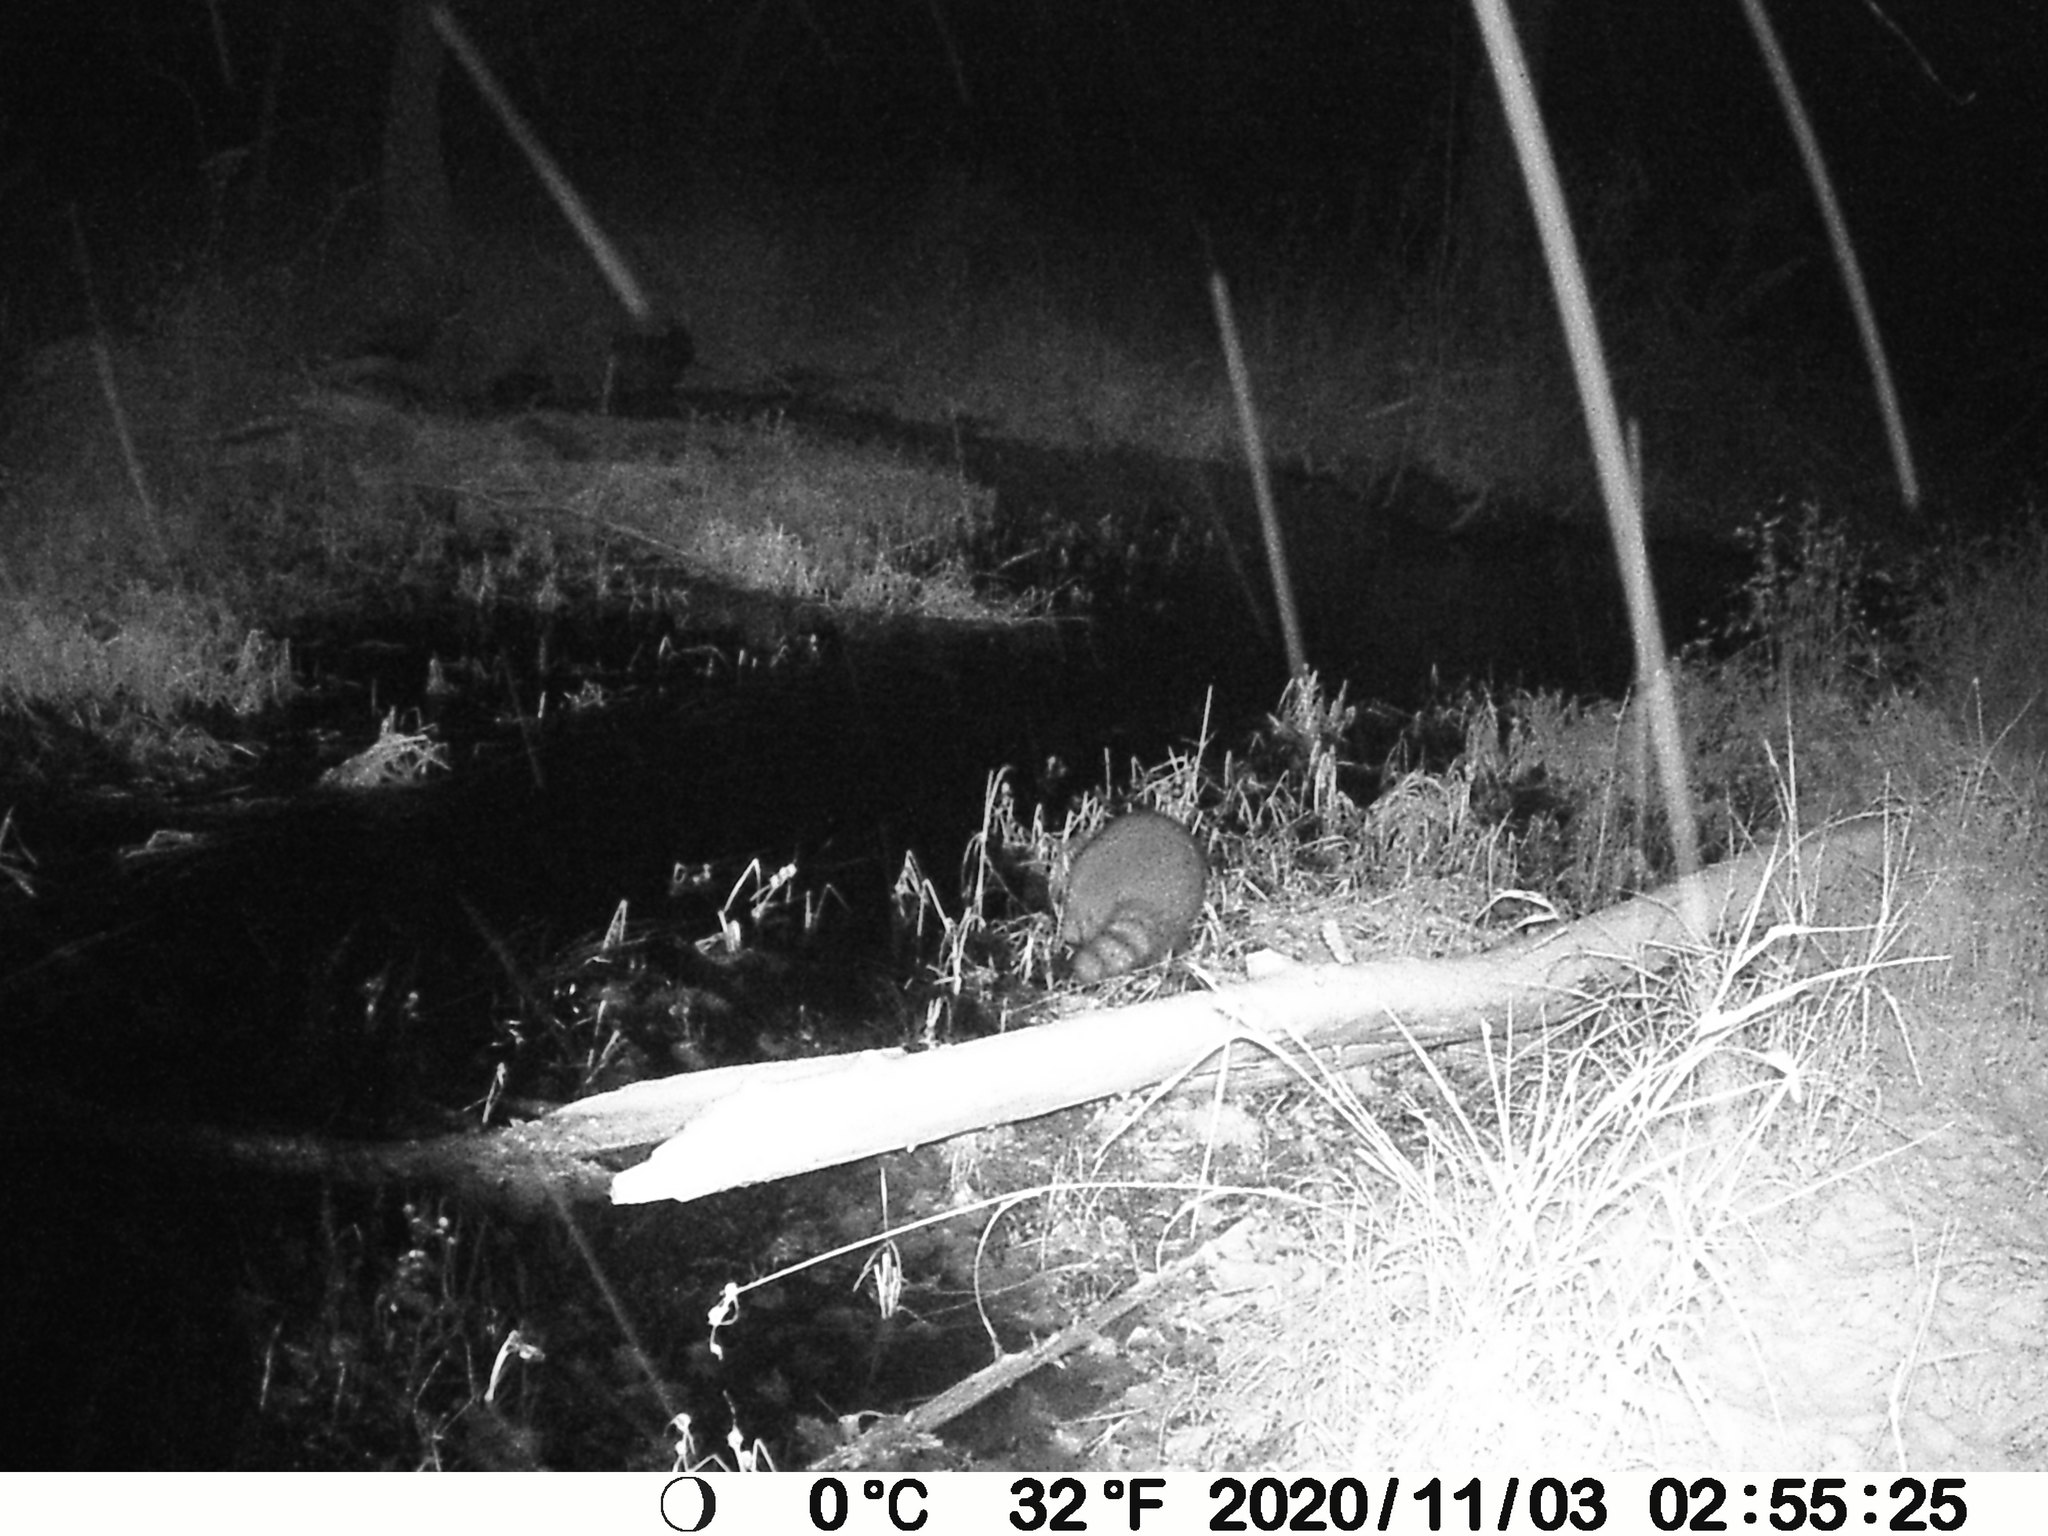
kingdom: Animalia
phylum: Chordata
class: Mammalia
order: Carnivora
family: Procyonidae
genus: Procyon
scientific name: Procyon lotor
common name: Raccoon
